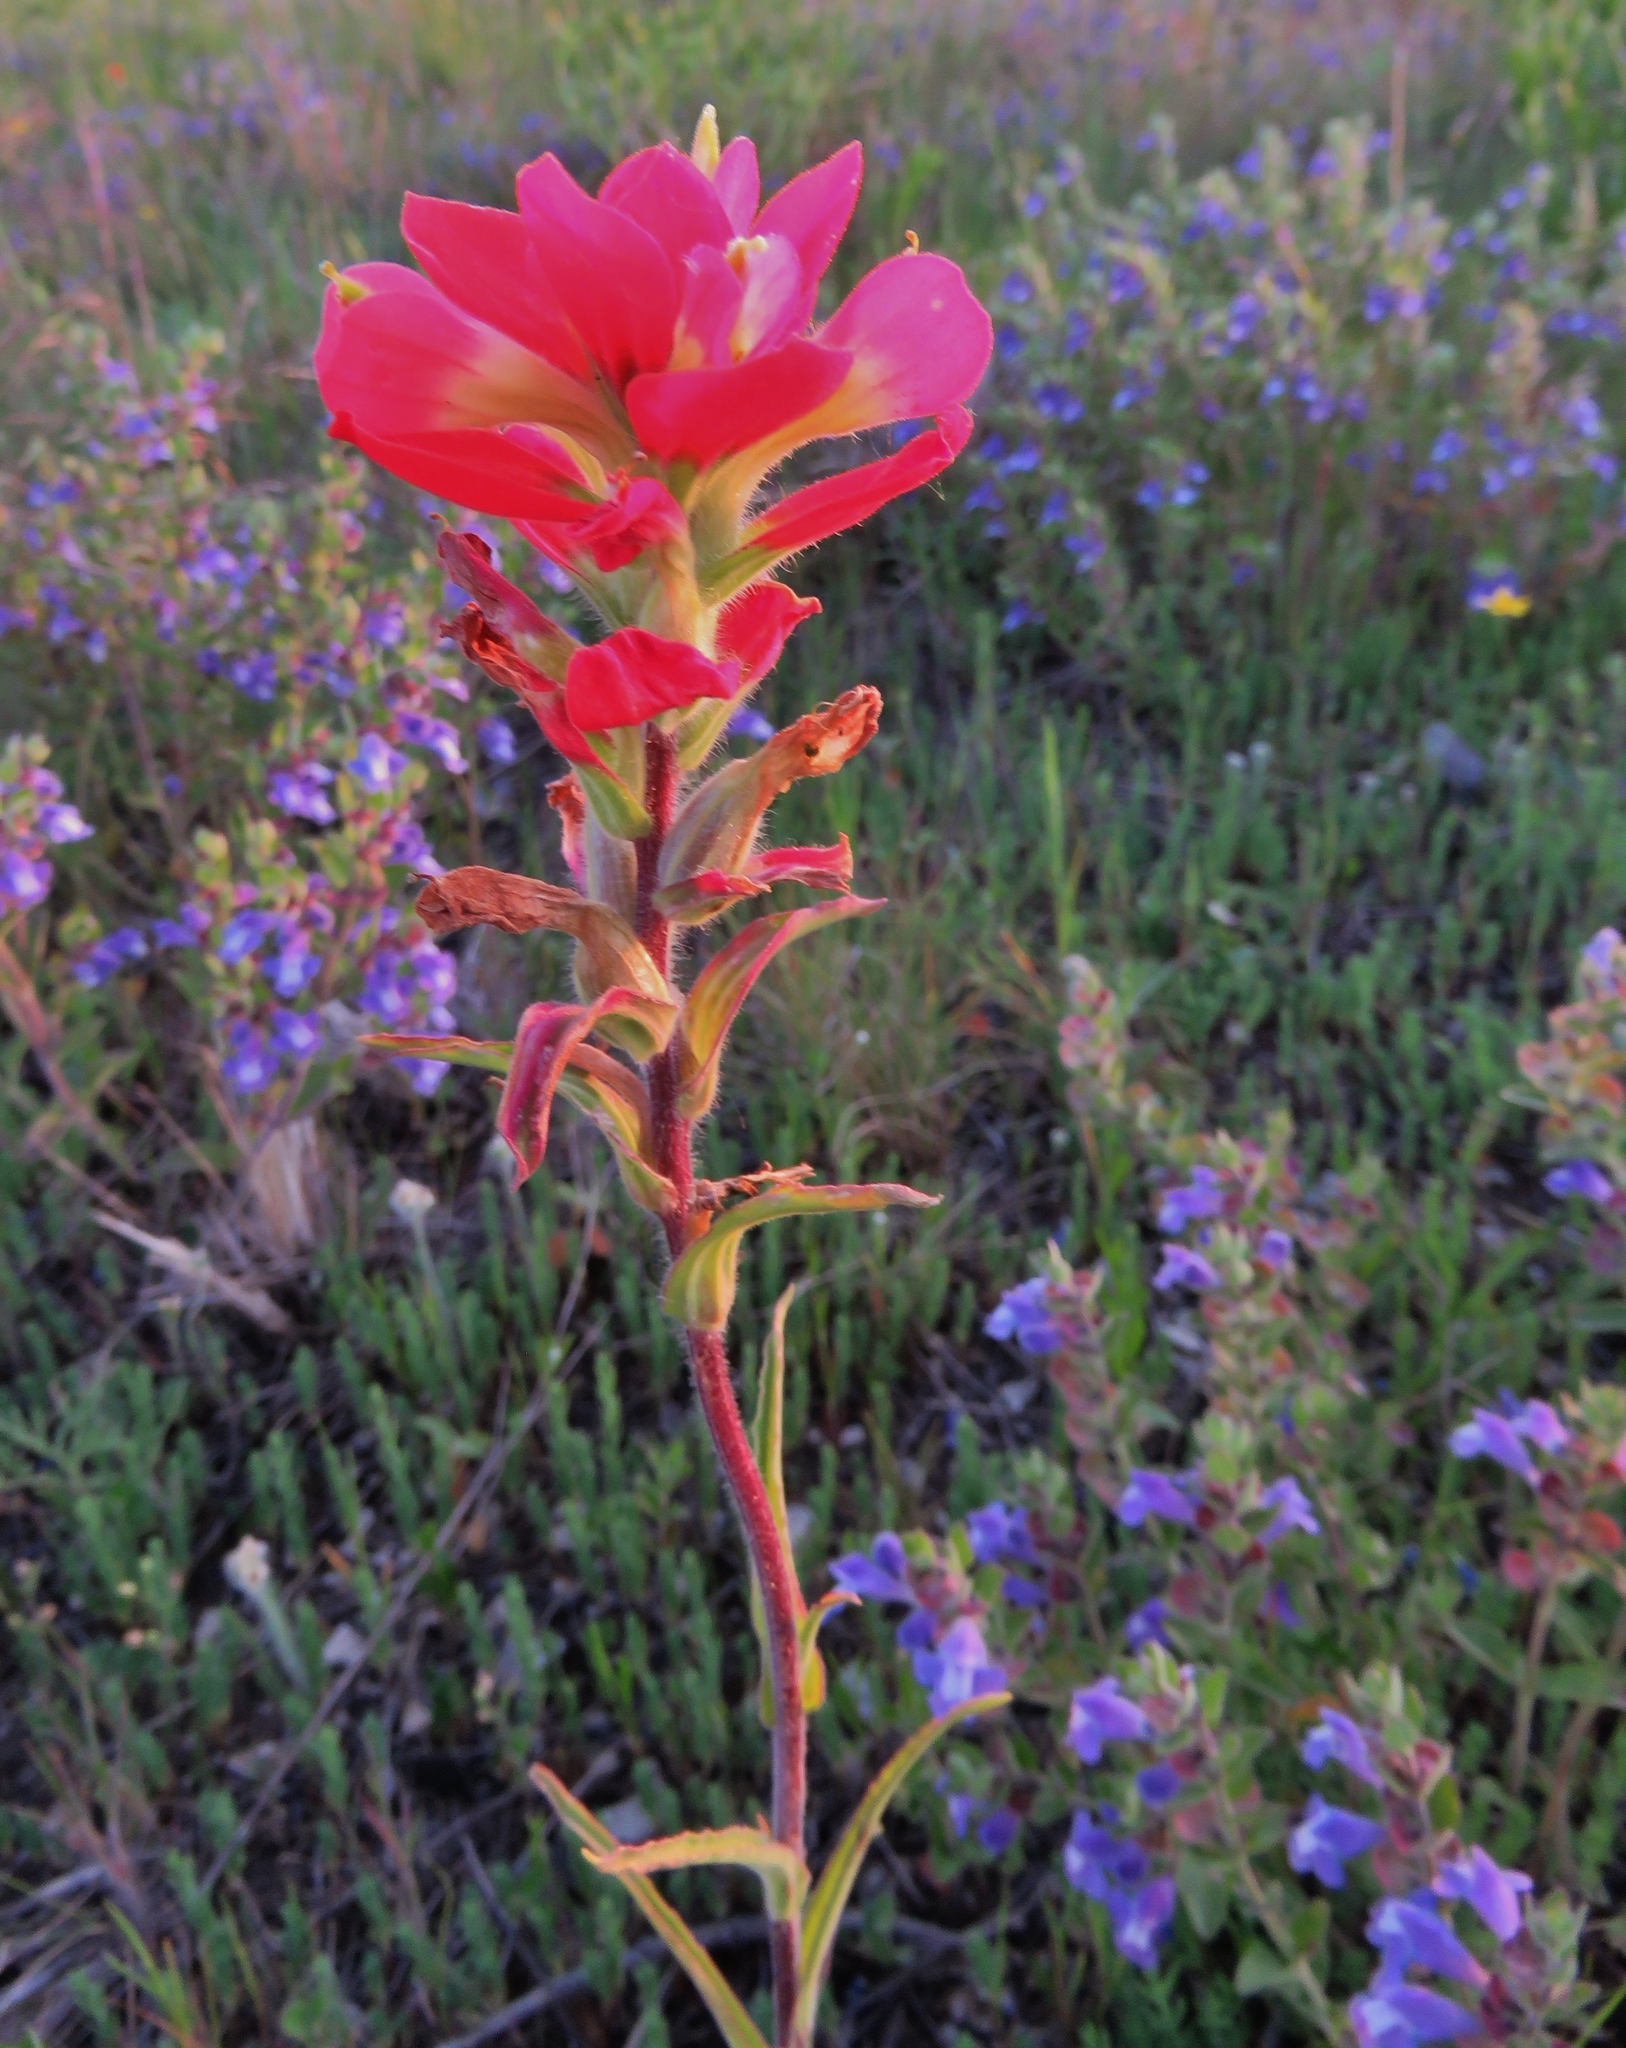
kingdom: Plantae
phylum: Tracheophyta
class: Magnoliopsida
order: Lamiales
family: Orobanchaceae
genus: Castilleja
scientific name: Castilleja indivisa
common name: Texas paintbrush
